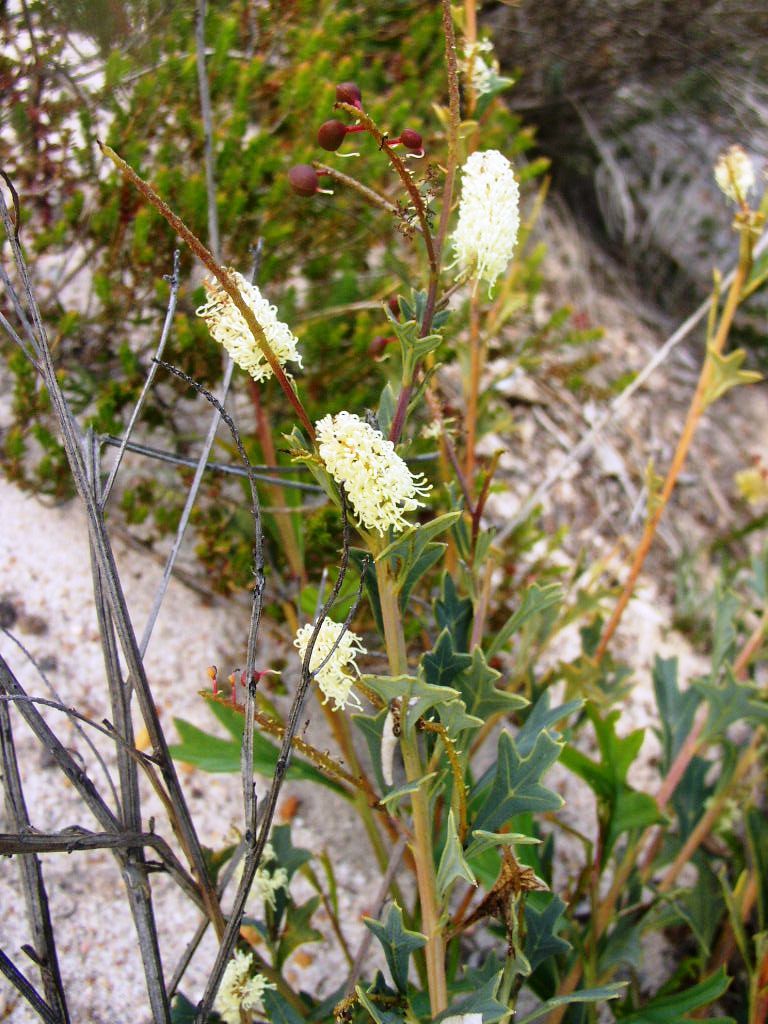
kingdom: Plantae
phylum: Tracheophyta
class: Magnoliopsida
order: Proteales
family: Proteaceae
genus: Grevillea
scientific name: Grevillea synaphea
